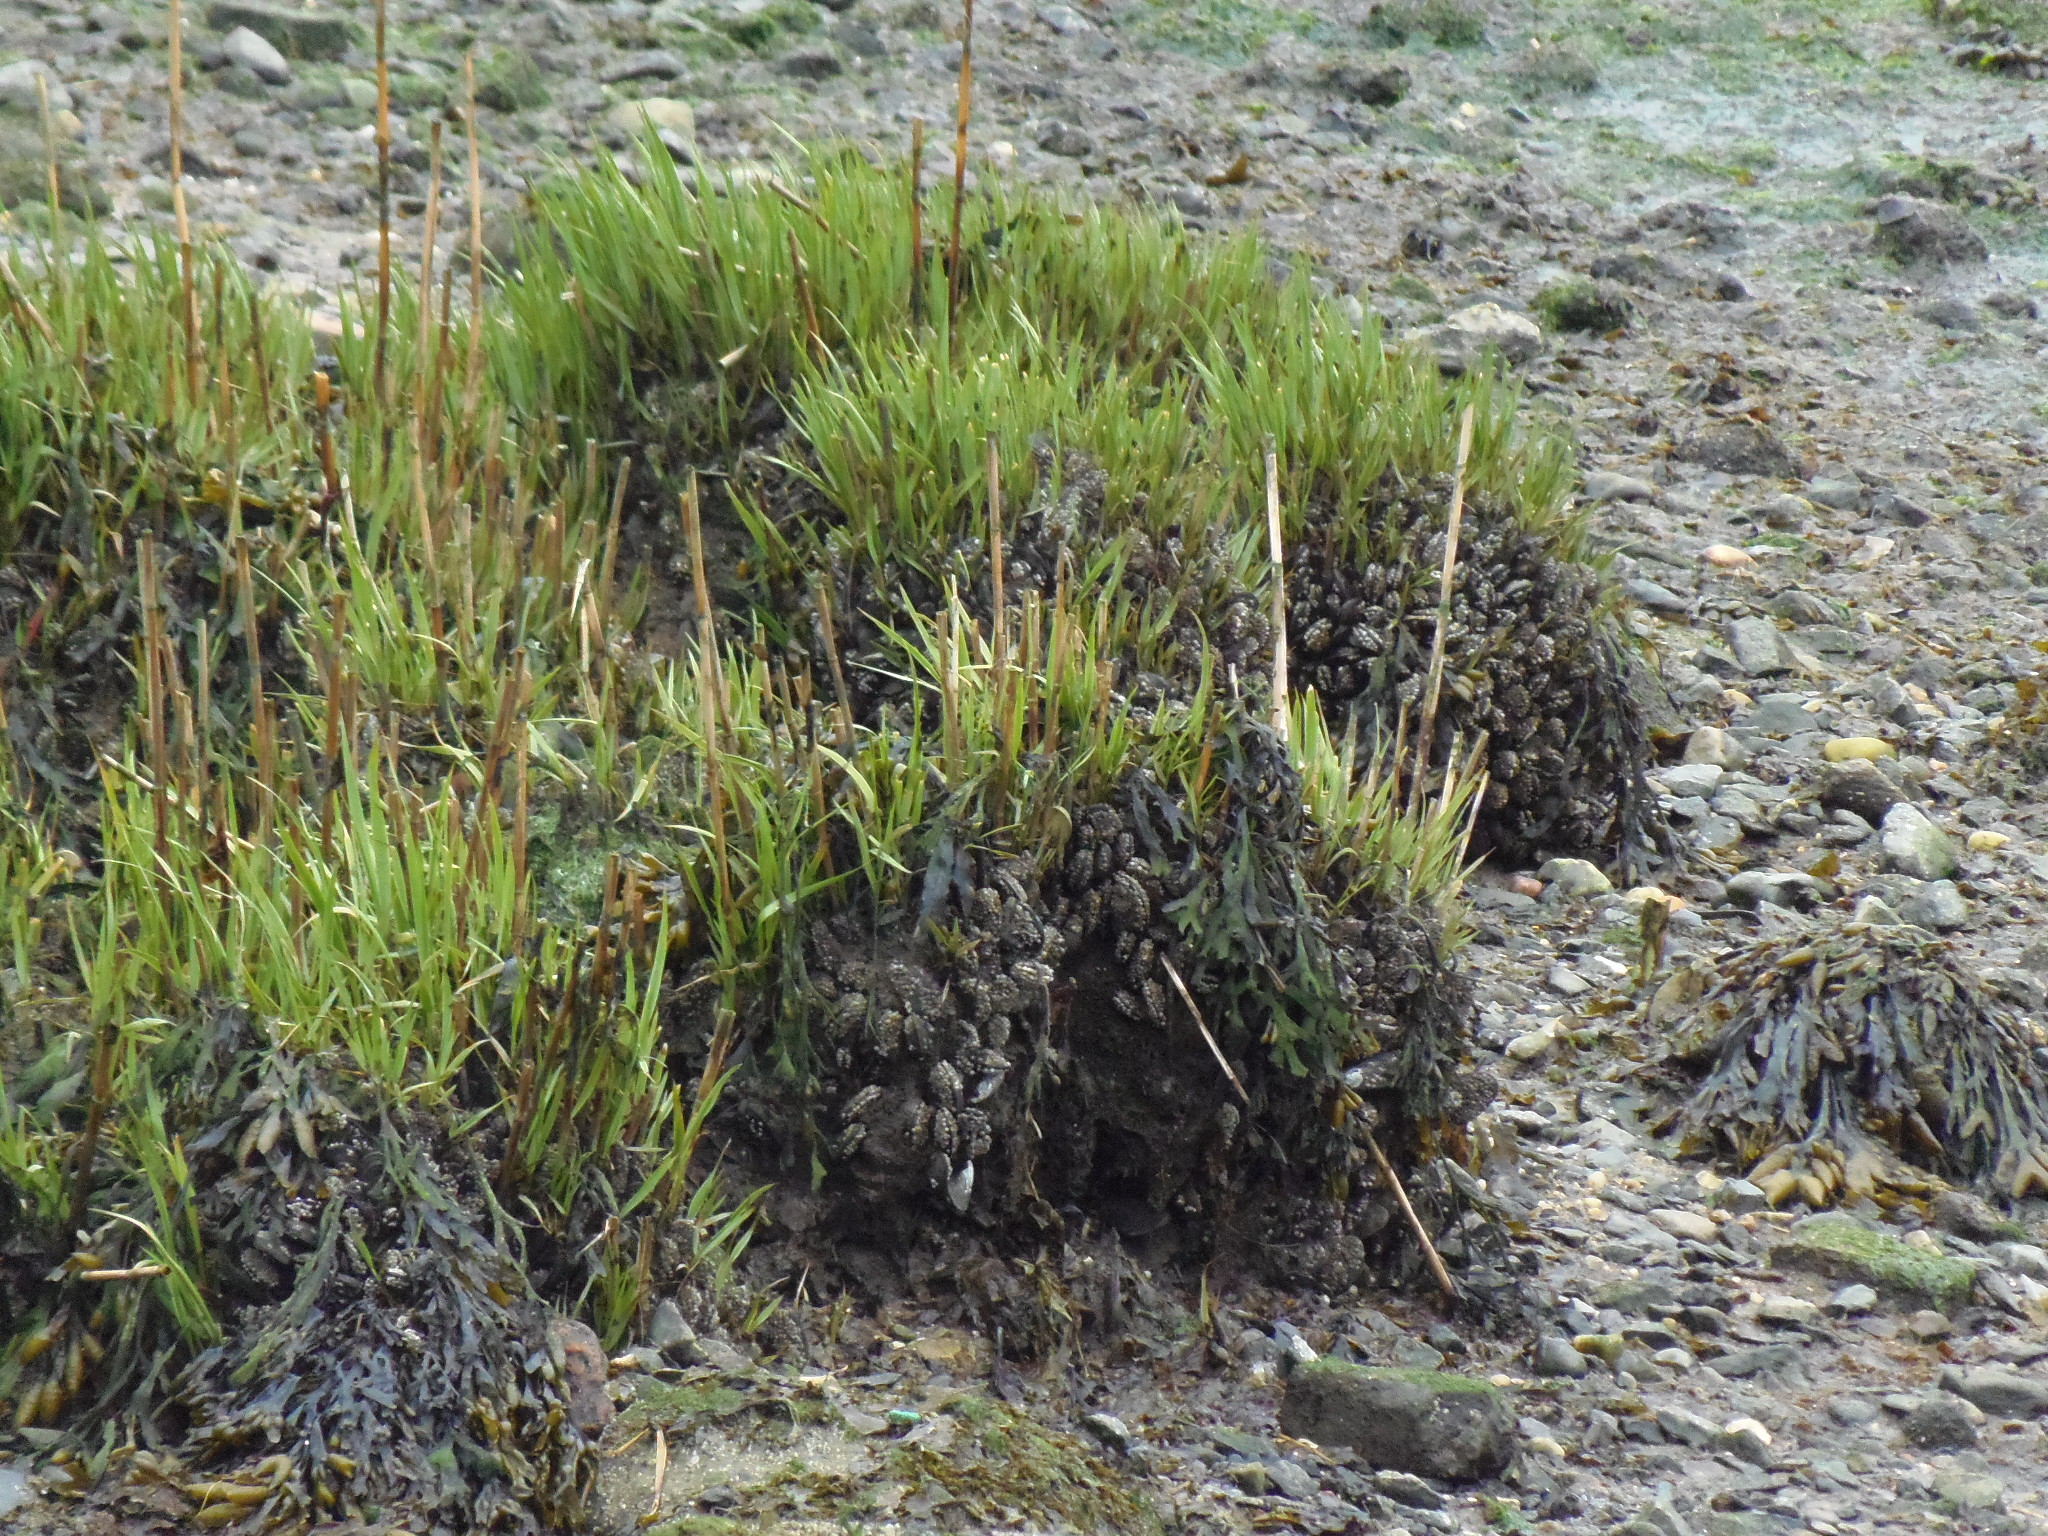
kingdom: Animalia
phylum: Mollusca
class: Bivalvia
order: Mytilida
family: Mytilidae
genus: Geukensia
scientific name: Geukensia demissa
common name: Ribbed mussel
